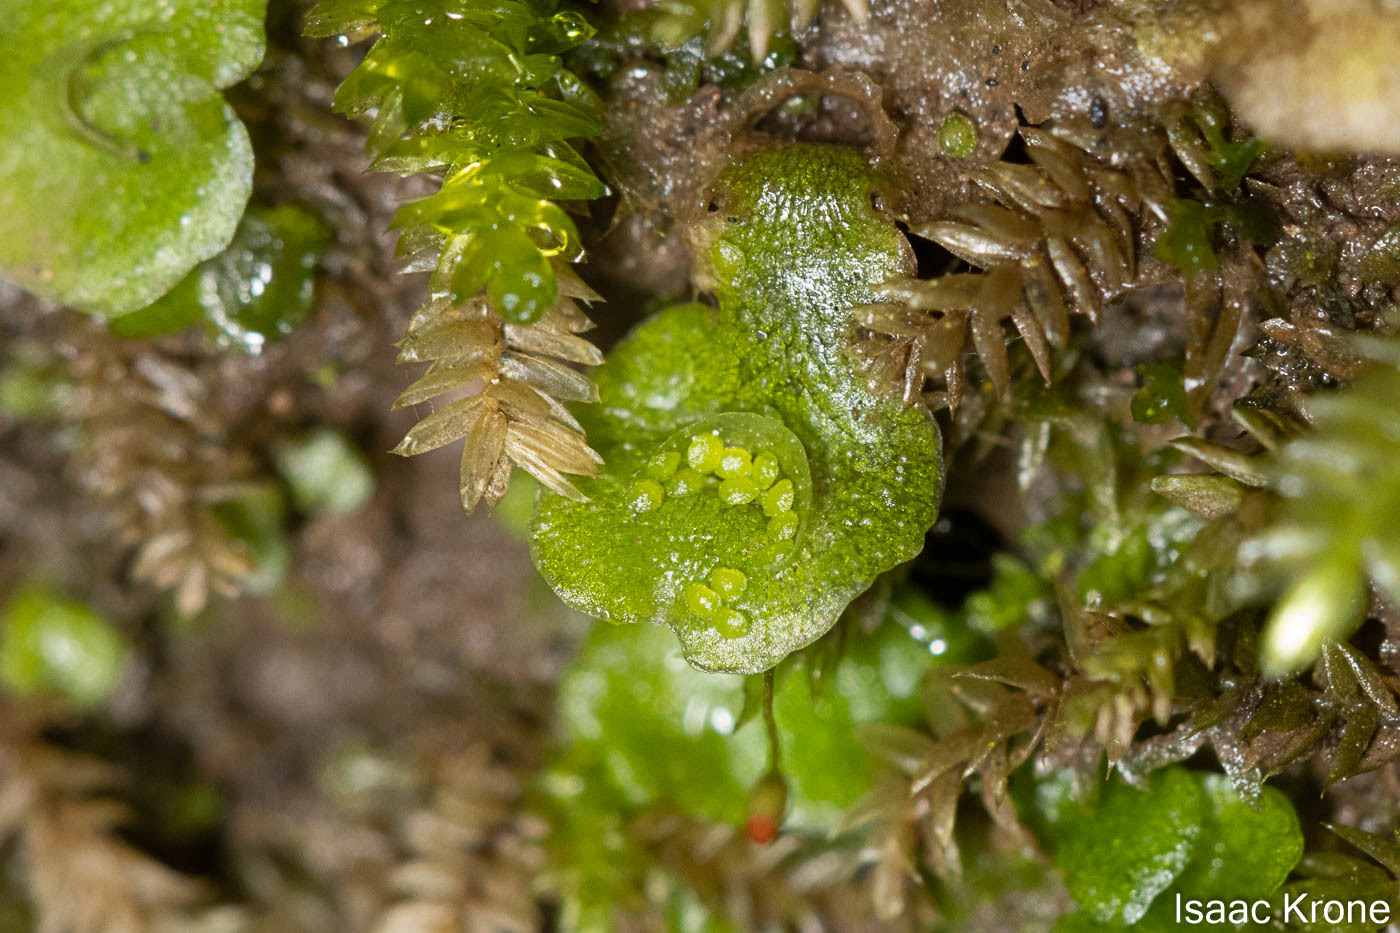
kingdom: Plantae
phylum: Marchantiophyta
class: Marchantiopsida
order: Lunulariales
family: Lunulariaceae
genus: Lunularia
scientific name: Lunularia cruciata
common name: Crescent-cup liverwort
